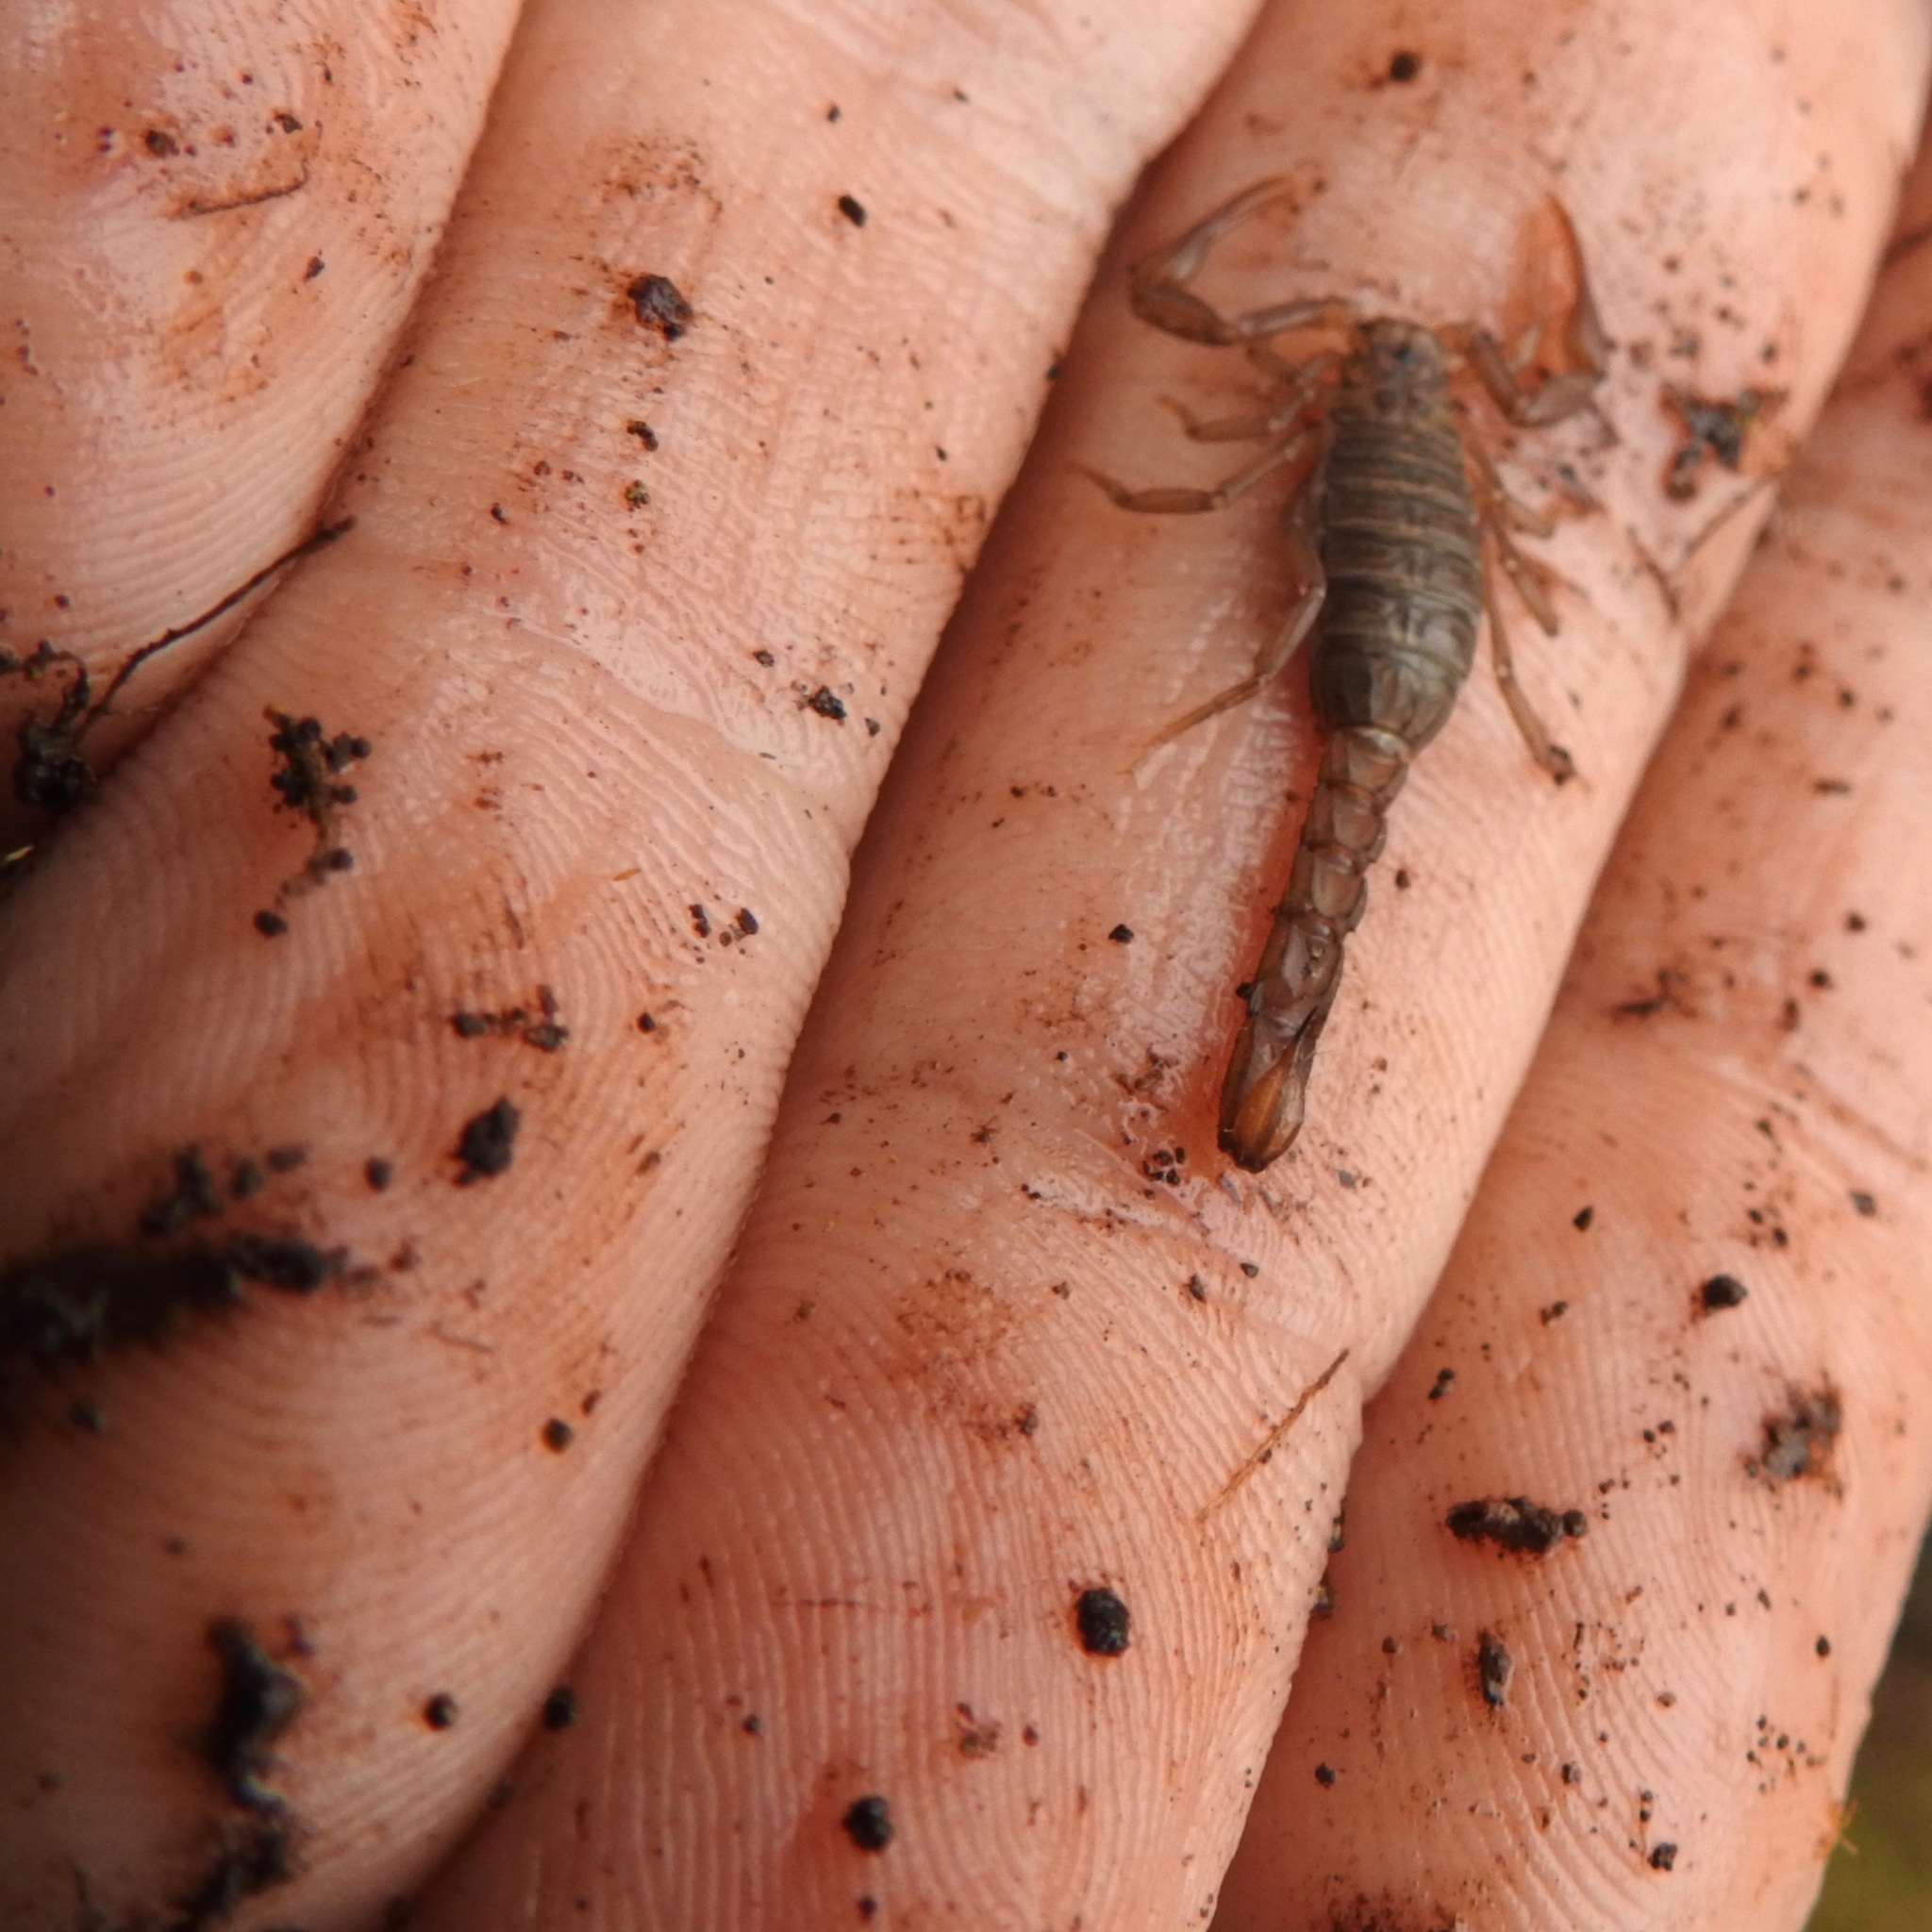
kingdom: Animalia
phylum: Arthropoda
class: Arachnida
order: Scorpiones
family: Vaejovidae
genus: Serradigitus
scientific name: Serradigitus gertschi
